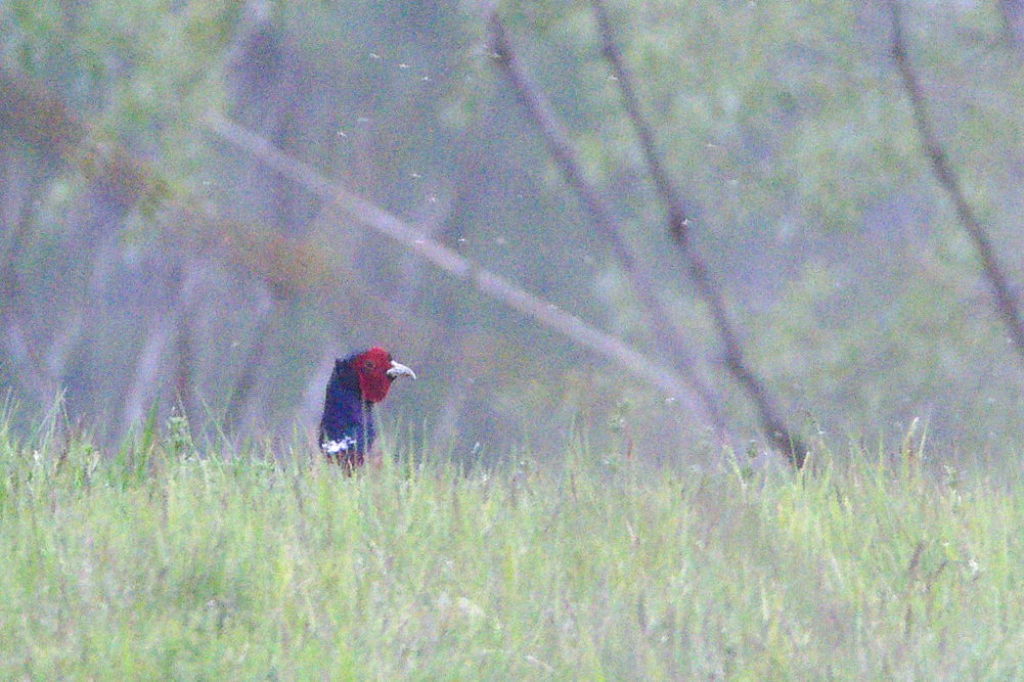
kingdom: Animalia
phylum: Chordata
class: Aves
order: Galliformes
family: Phasianidae
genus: Phasianus
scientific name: Phasianus colchicus
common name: Common pheasant
